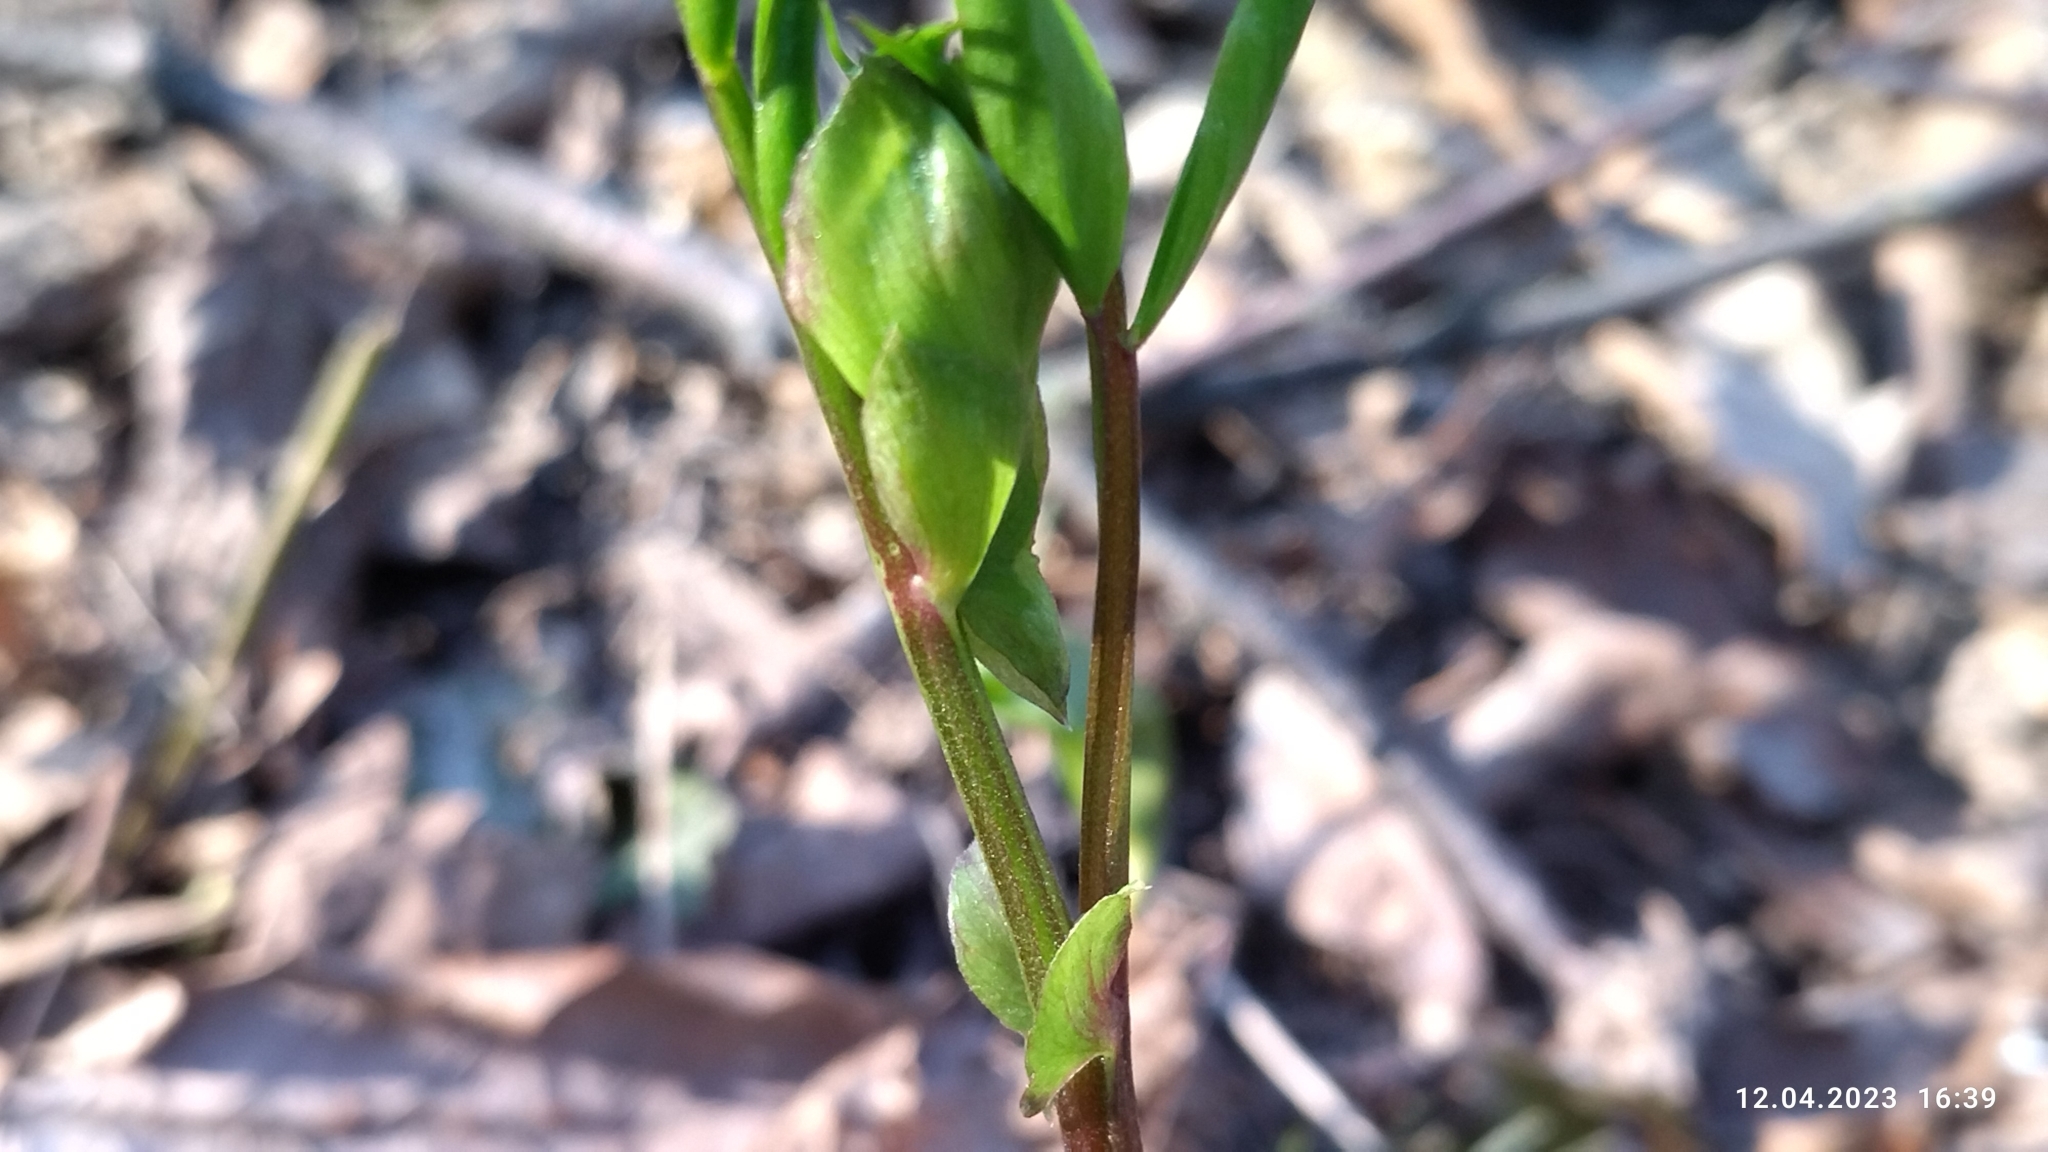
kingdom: Plantae
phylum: Tracheophyta
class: Magnoliopsida
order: Fabales
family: Fabaceae
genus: Lathyrus
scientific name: Lathyrus vernus
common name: Spring pea
